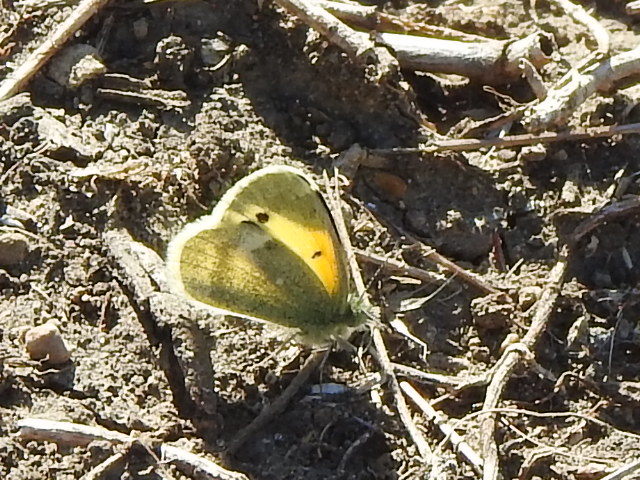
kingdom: Animalia
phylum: Arthropoda
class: Insecta
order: Lepidoptera
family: Pieridae
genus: Nathalis
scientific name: Nathalis iole
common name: Dainty sulphur
